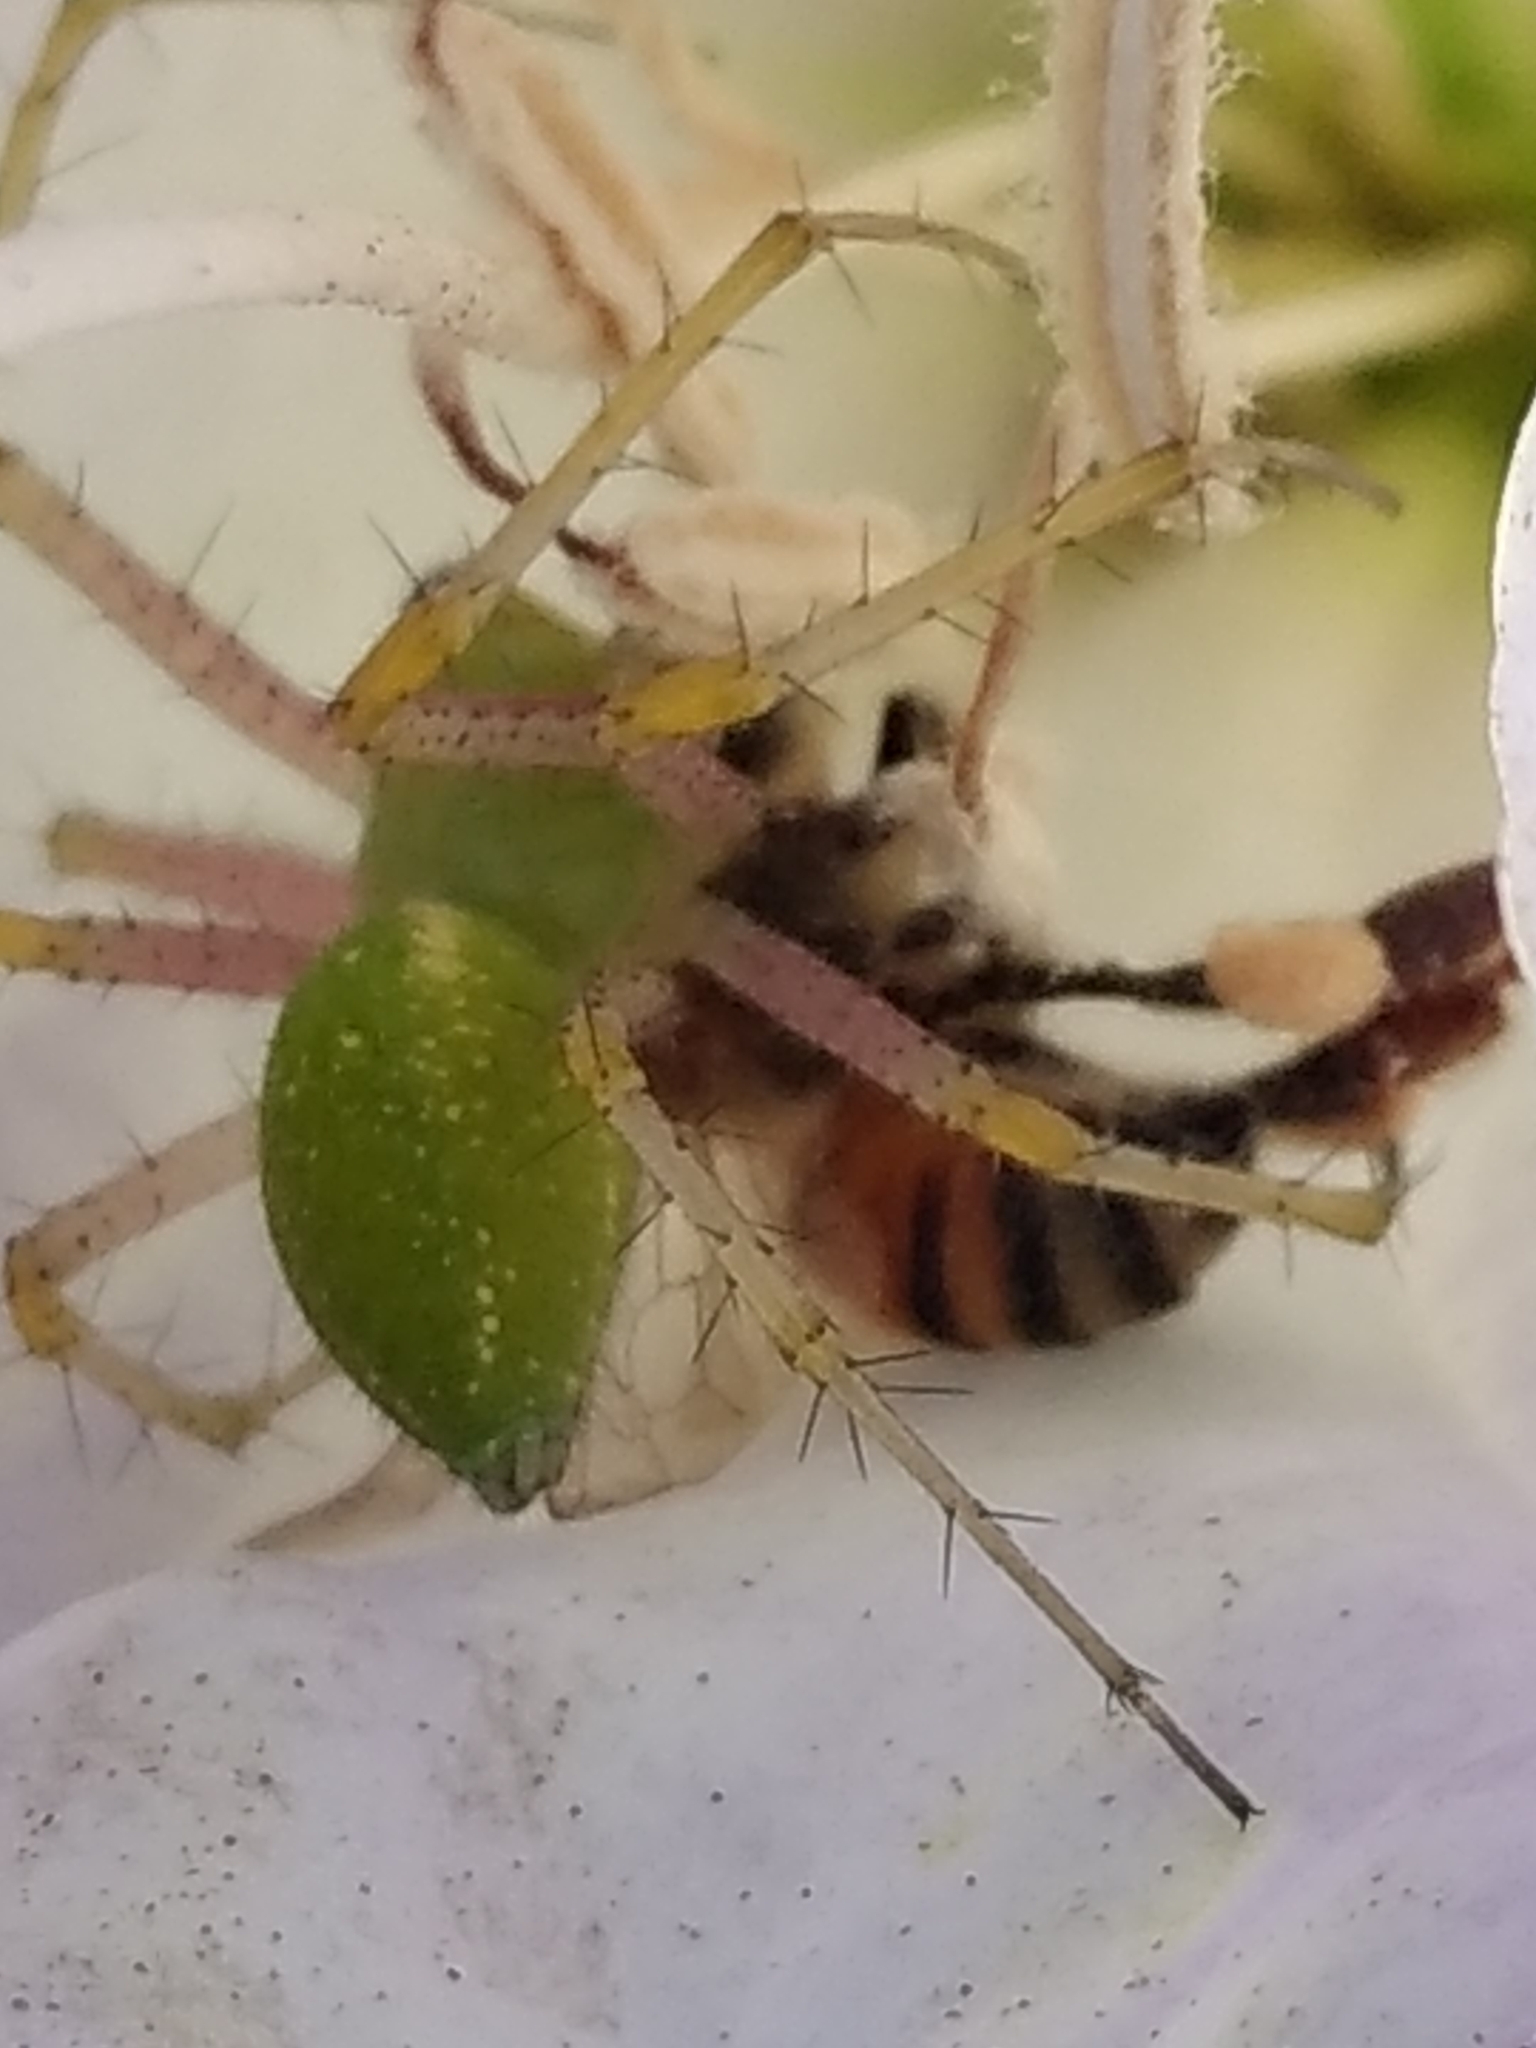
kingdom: Animalia
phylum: Arthropoda
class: Insecta
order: Hymenoptera
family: Apidae
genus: Apis
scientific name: Apis mellifera
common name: Honey bee
